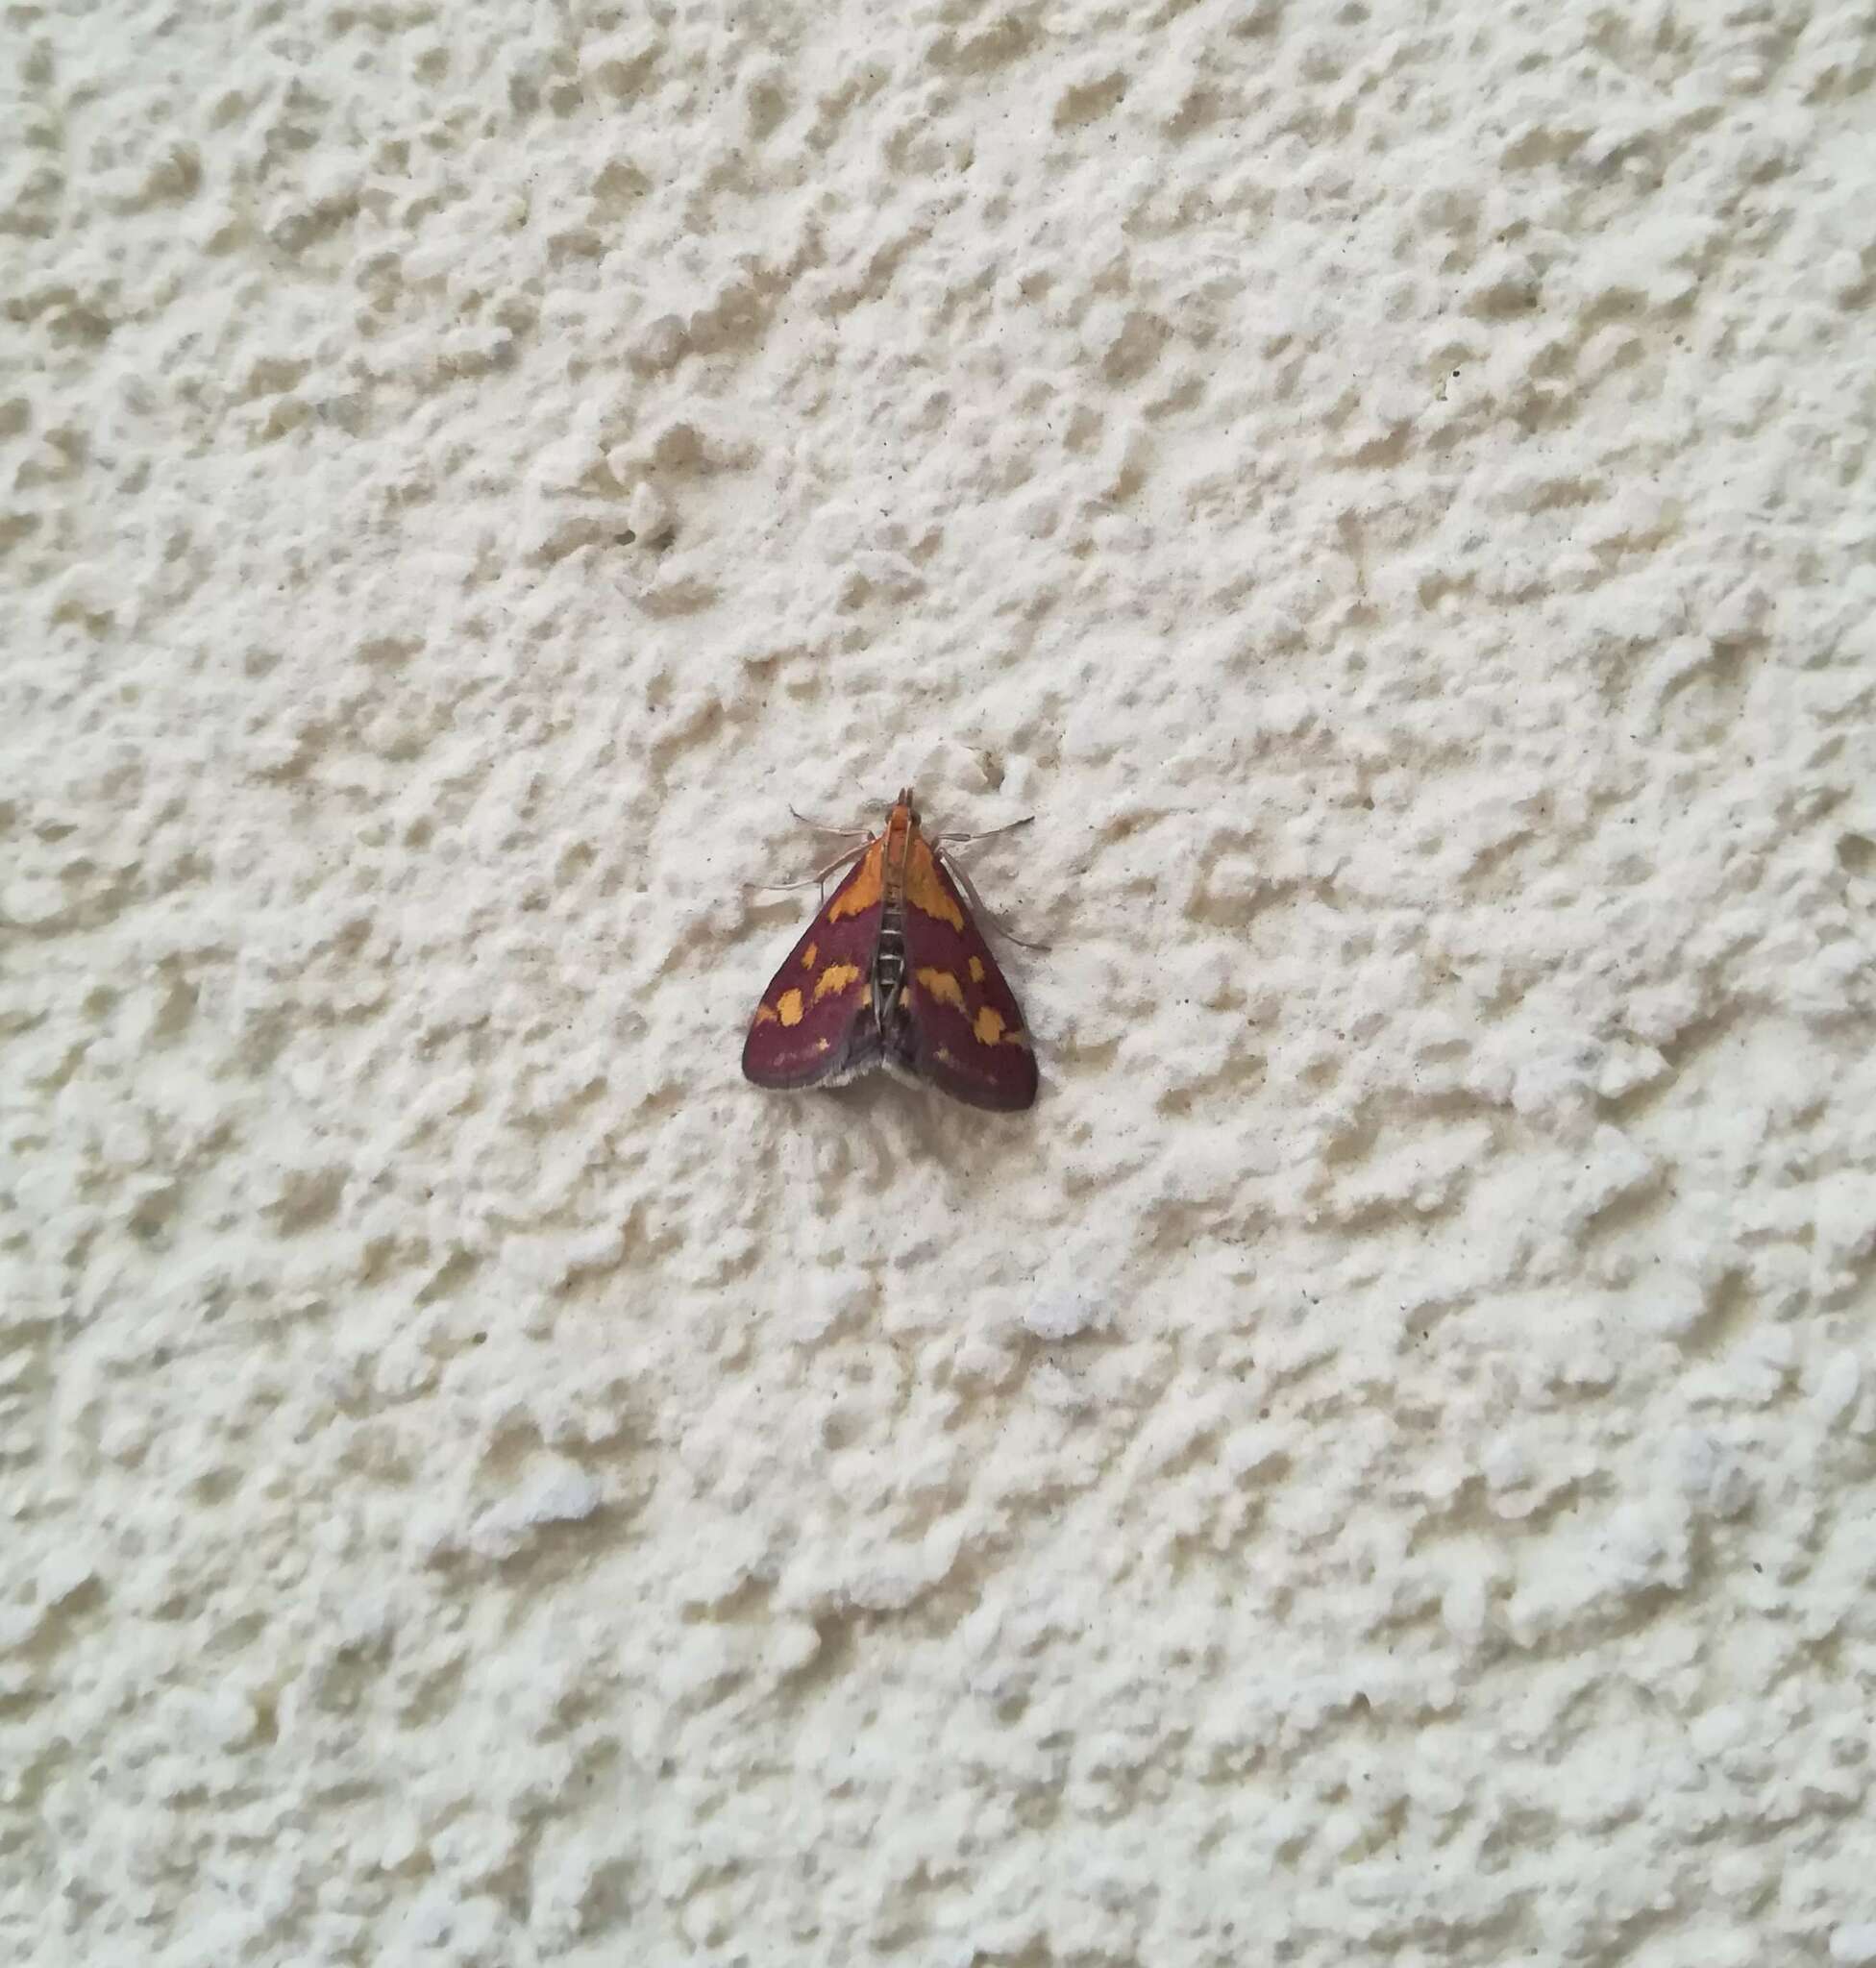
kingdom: Animalia
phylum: Arthropoda
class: Insecta
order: Lepidoptera
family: Crambidae
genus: Pyrausta
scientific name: Pyrausta purpuralis
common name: Common purple & gold
